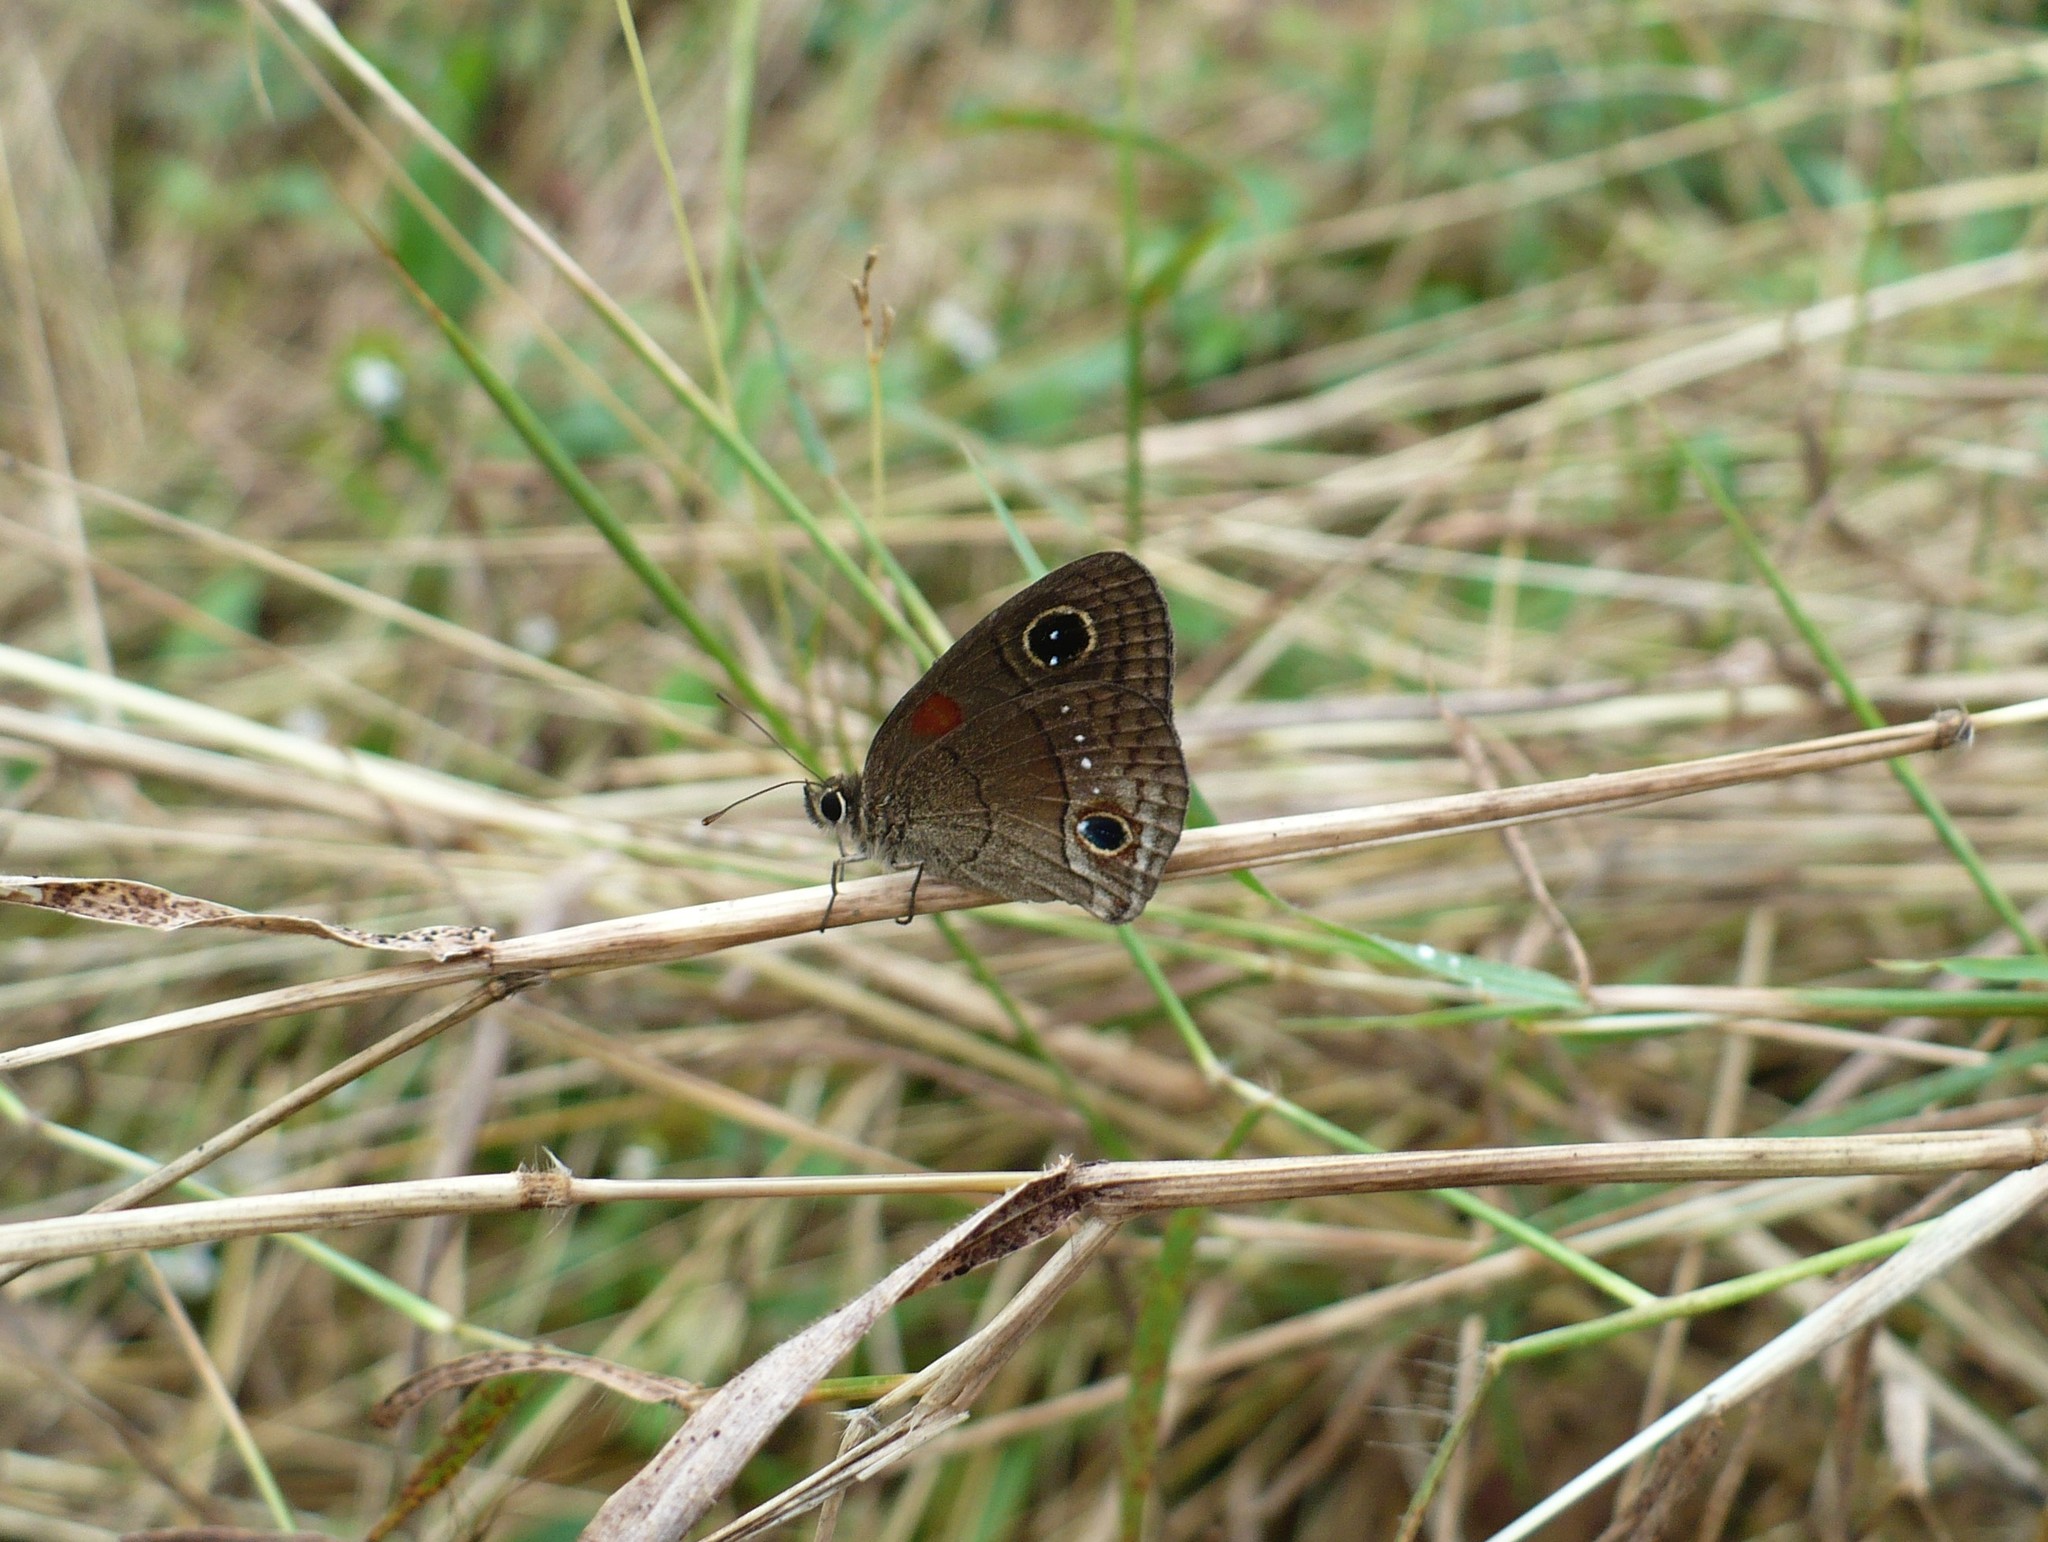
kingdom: Animalia
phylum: Arthropoda
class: Insecta
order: Lepidoptera
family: Nymphalidae
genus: Calisto
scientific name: Calisto herophile
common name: Cuban calisto
